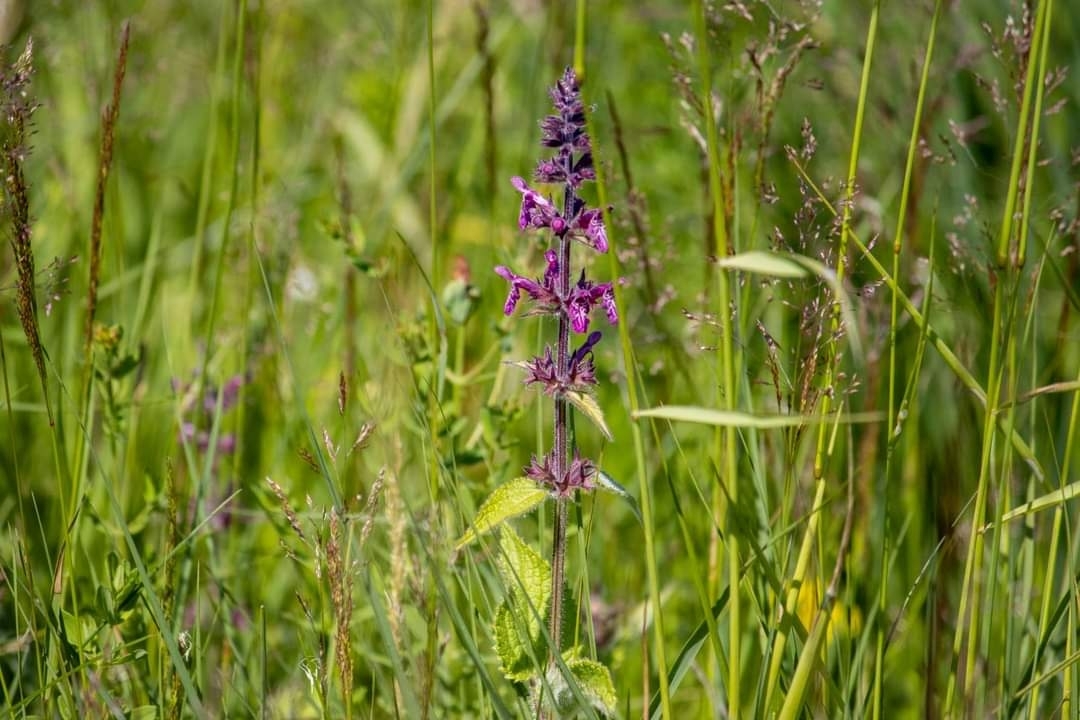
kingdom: Plantae
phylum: Tracheophyta
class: Magnoliopsida
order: Lamiales
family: Lamiaceae
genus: Stachys
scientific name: Stachys sylvatica
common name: Hedge woundwort
